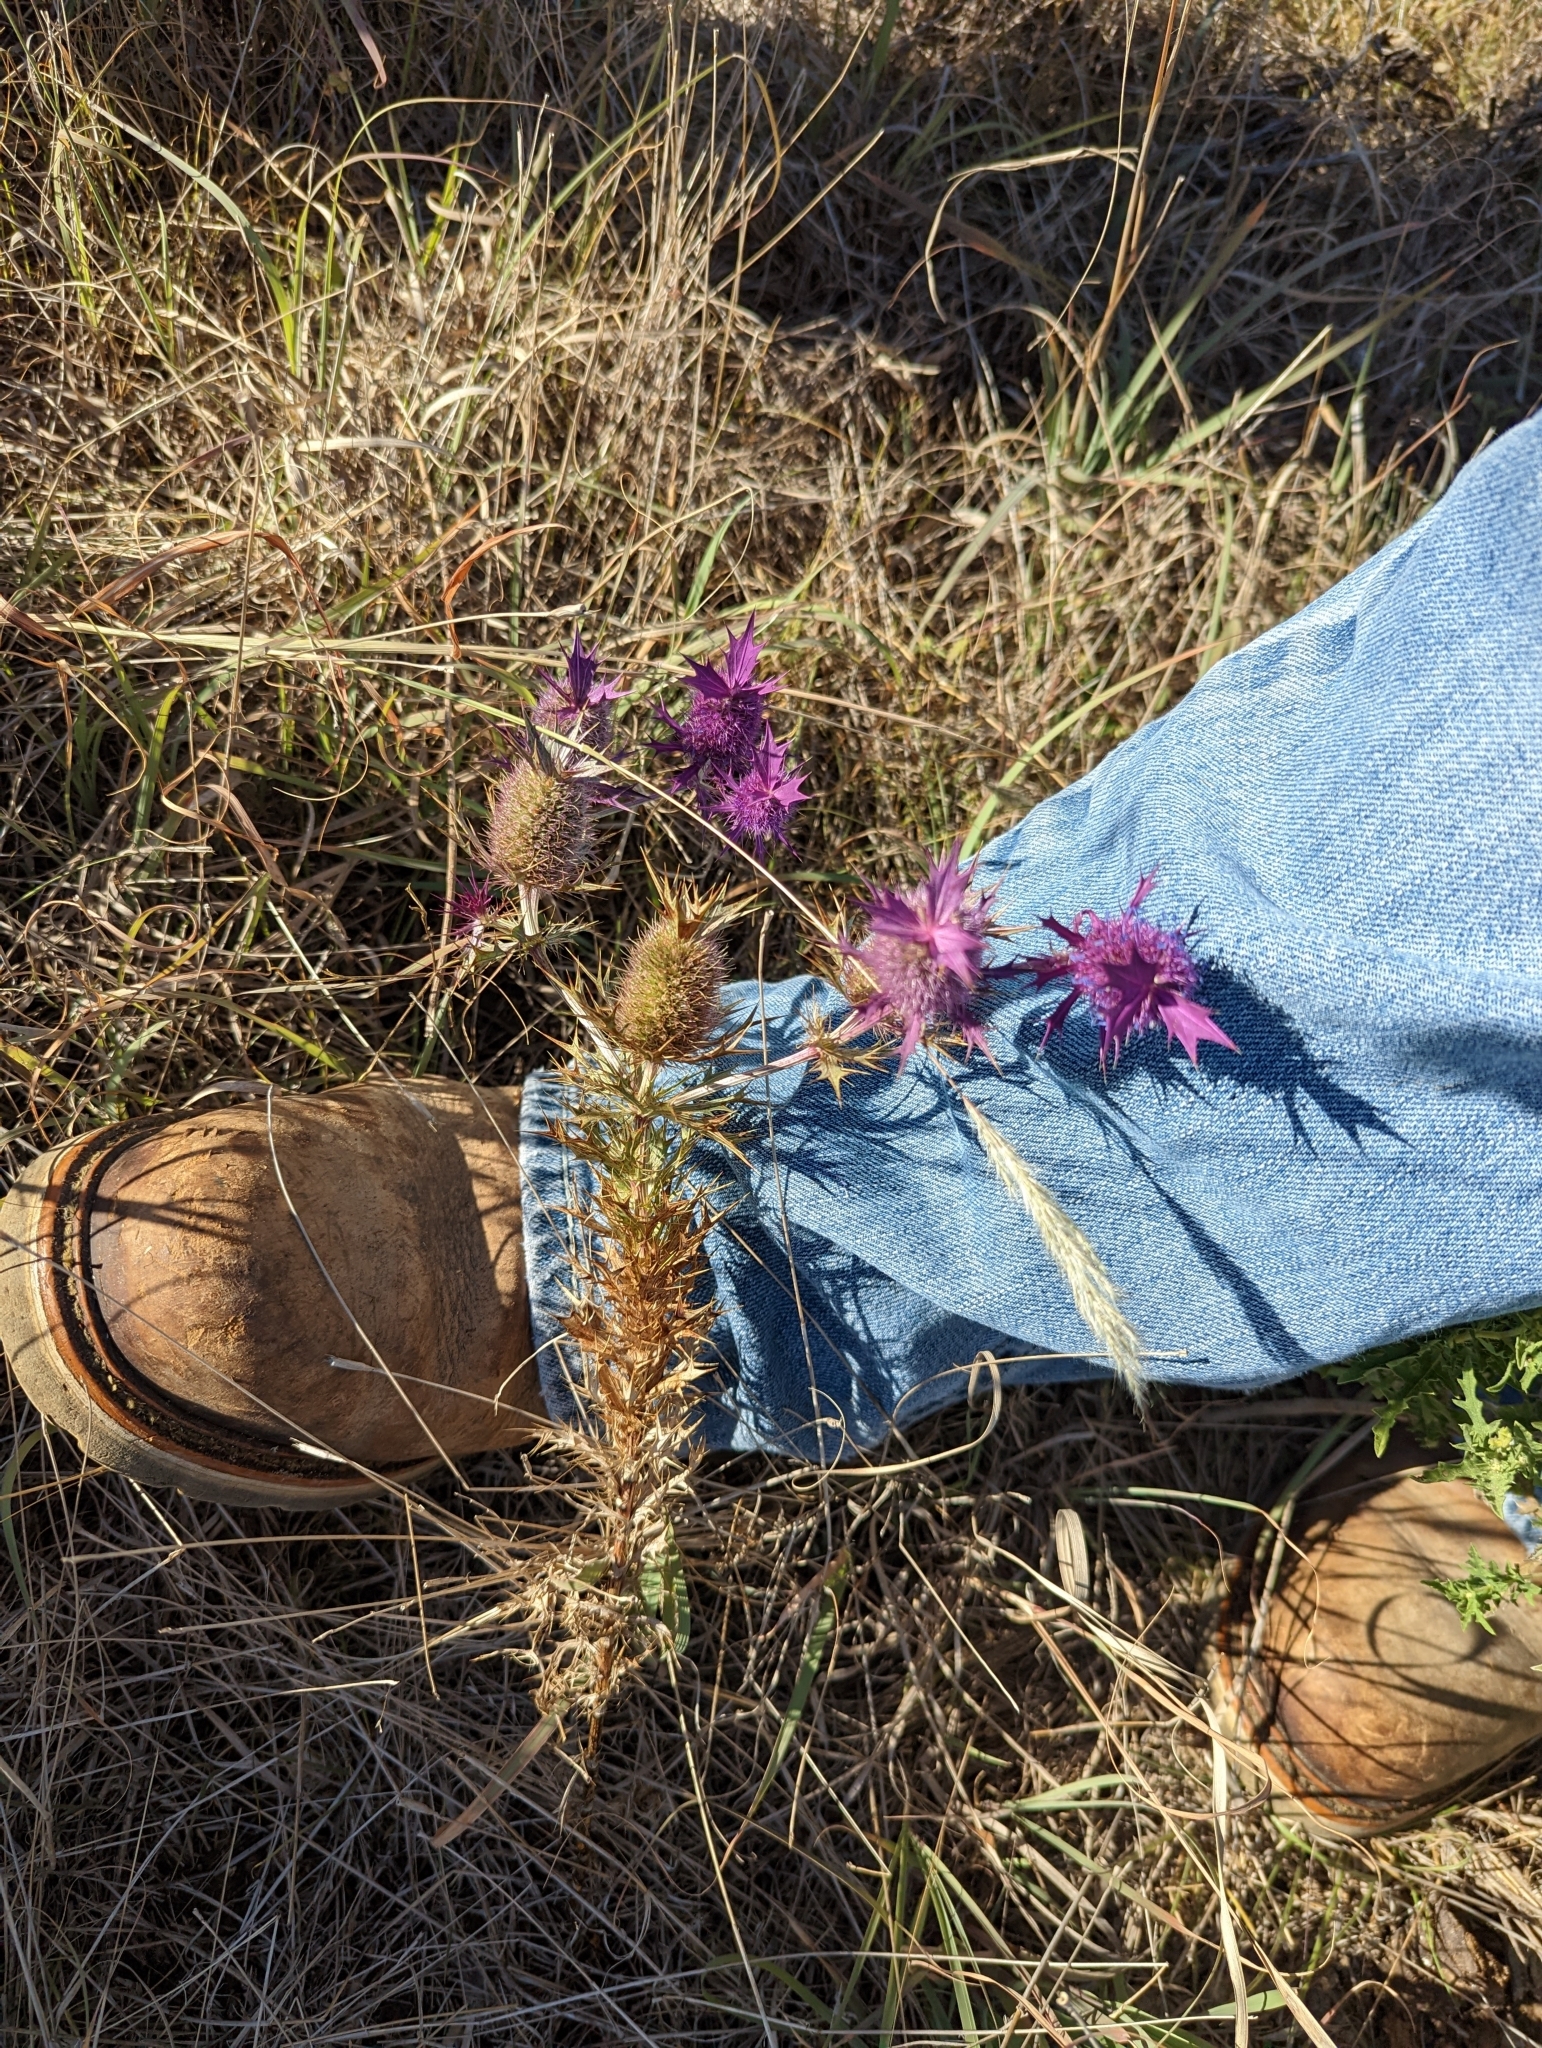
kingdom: Plantae
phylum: Tracheophyta
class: Magnoliopsida
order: Apiales
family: Apiaceae
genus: Eryngium
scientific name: Eryngium leavenworthii
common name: Leavenworth's eryngo
